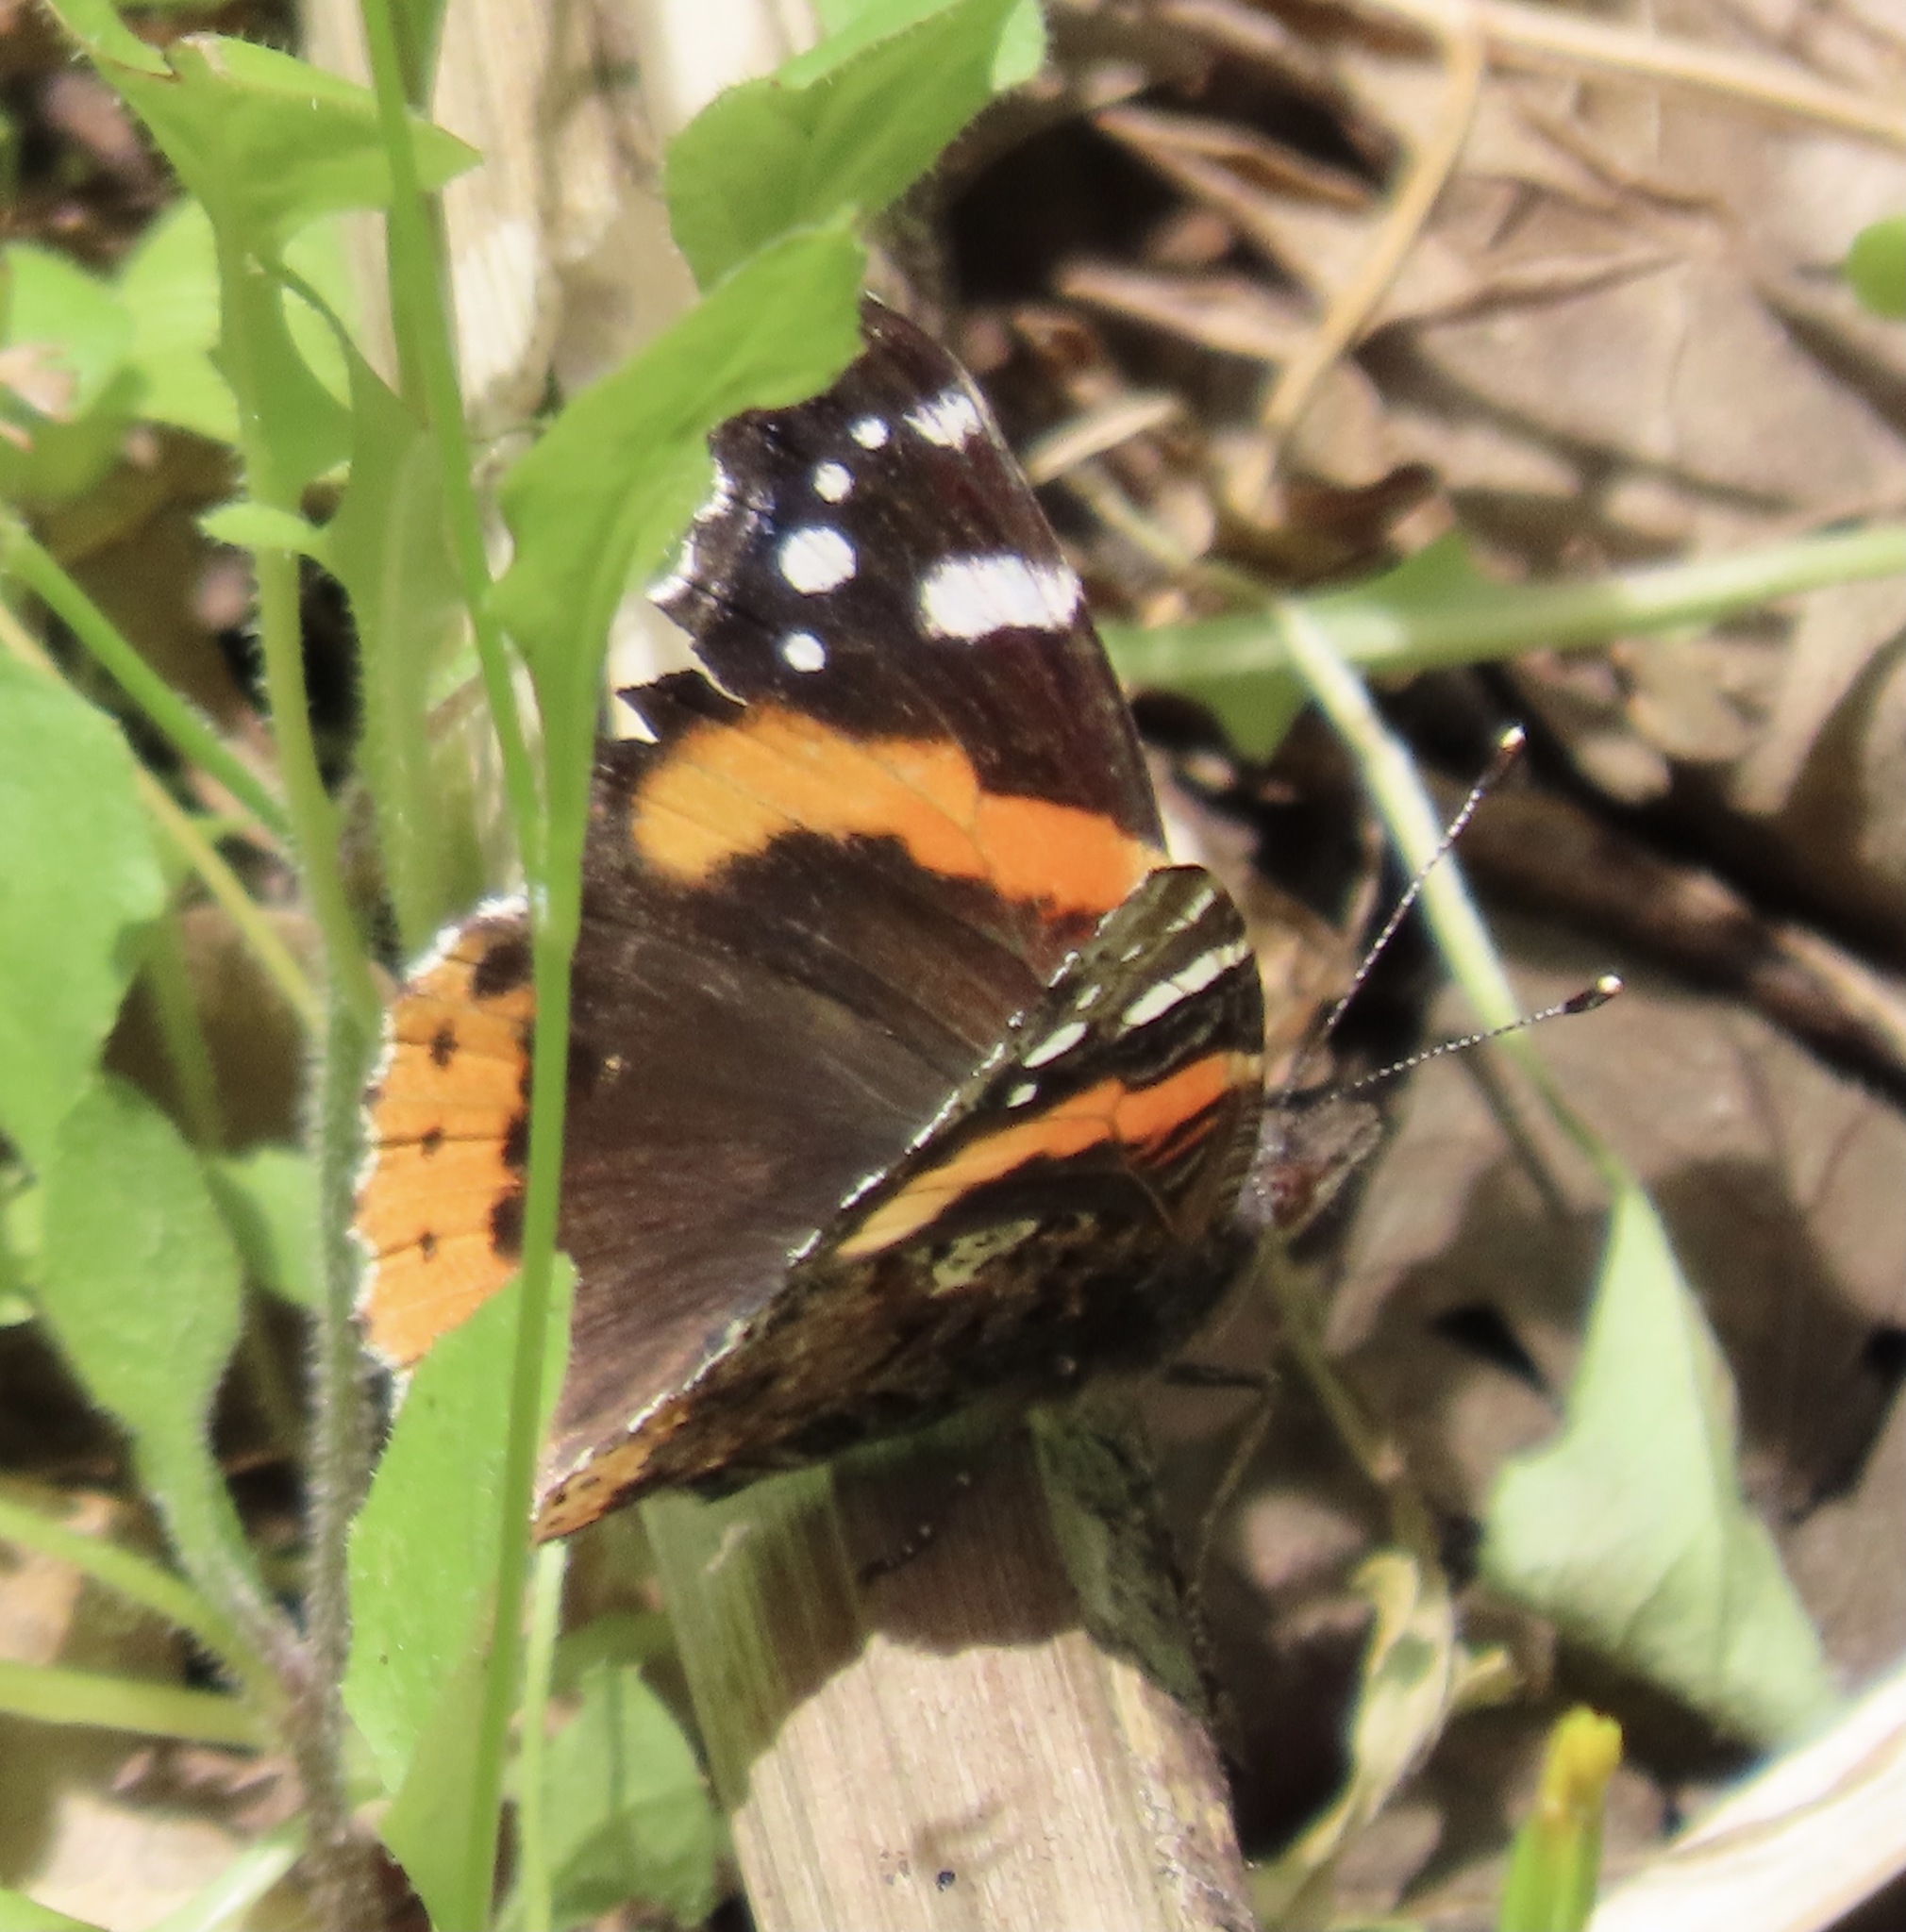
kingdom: Animalia
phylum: Arthropoda
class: Insecta
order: Lepidoptera
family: Nymphalidae
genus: Vanessa
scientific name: Vanessa atalanta
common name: Red admiral
